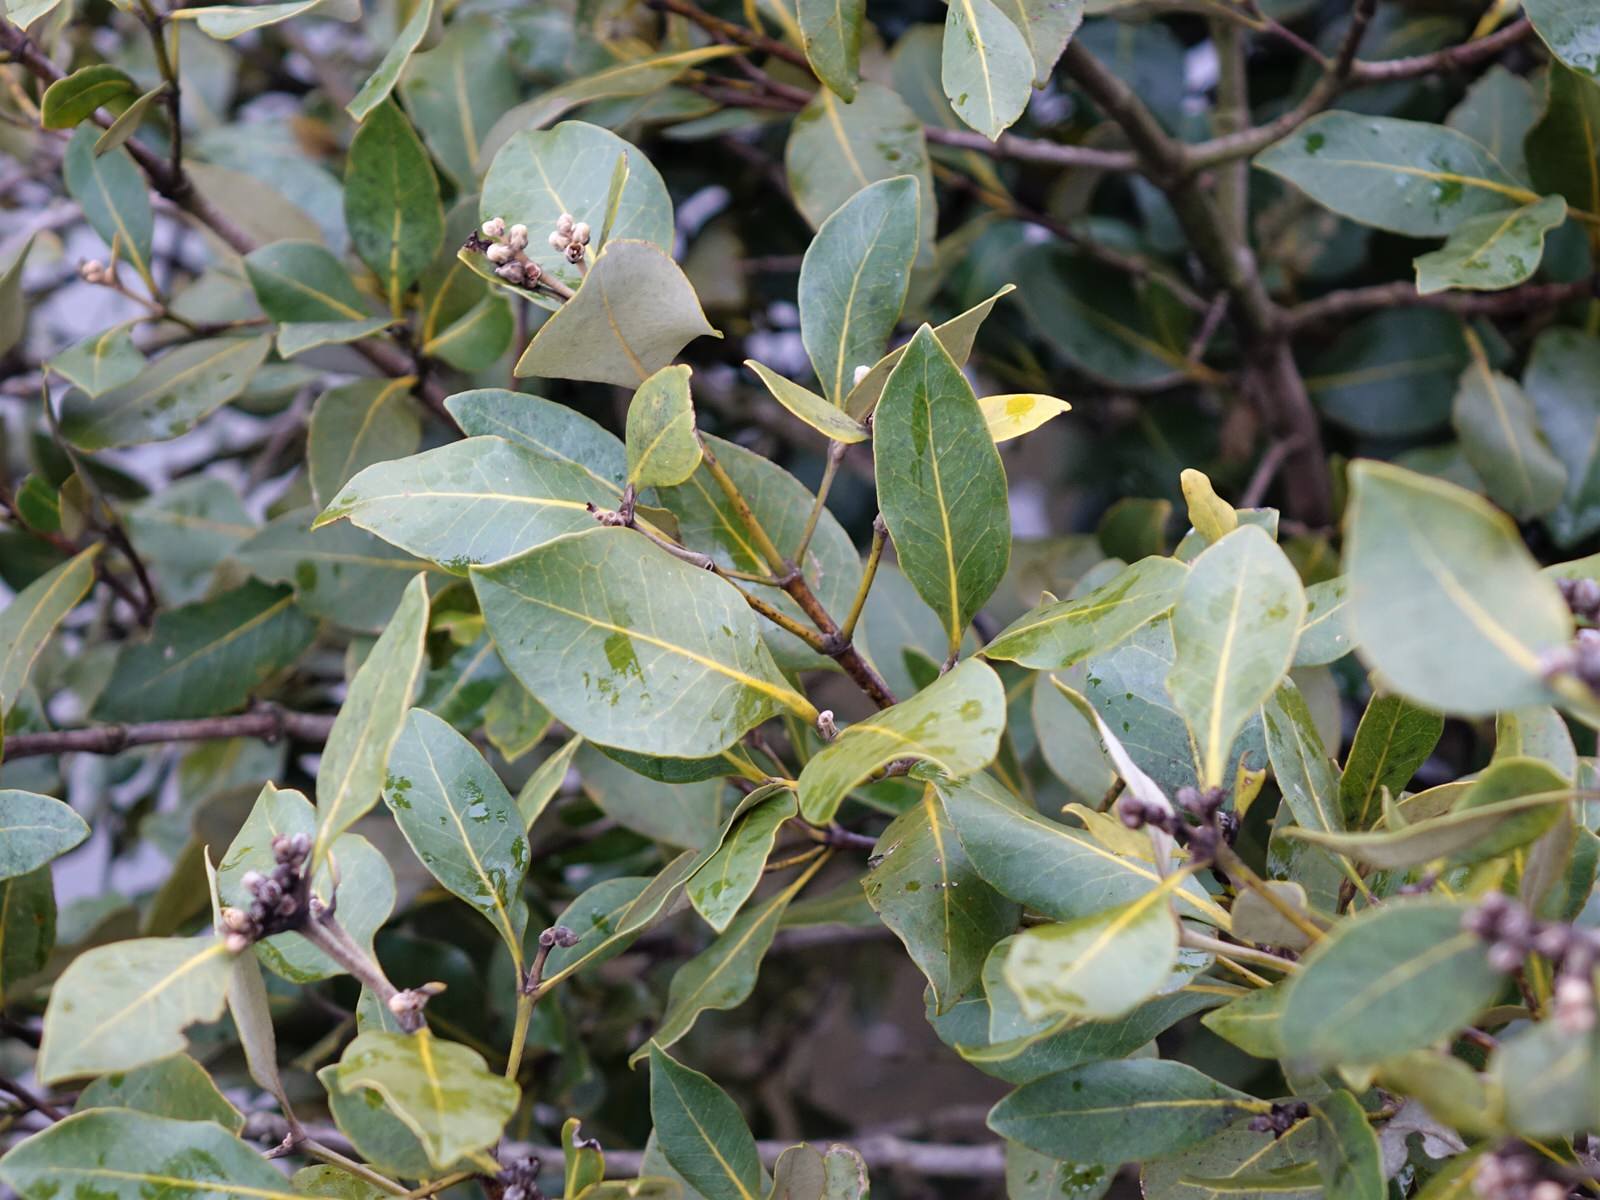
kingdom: Plantae
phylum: Tracheophyta
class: Magnoliopsida
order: Lamiales
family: Acanthaceae
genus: Avicennia
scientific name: Avicennia marina
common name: Gray mangrove
